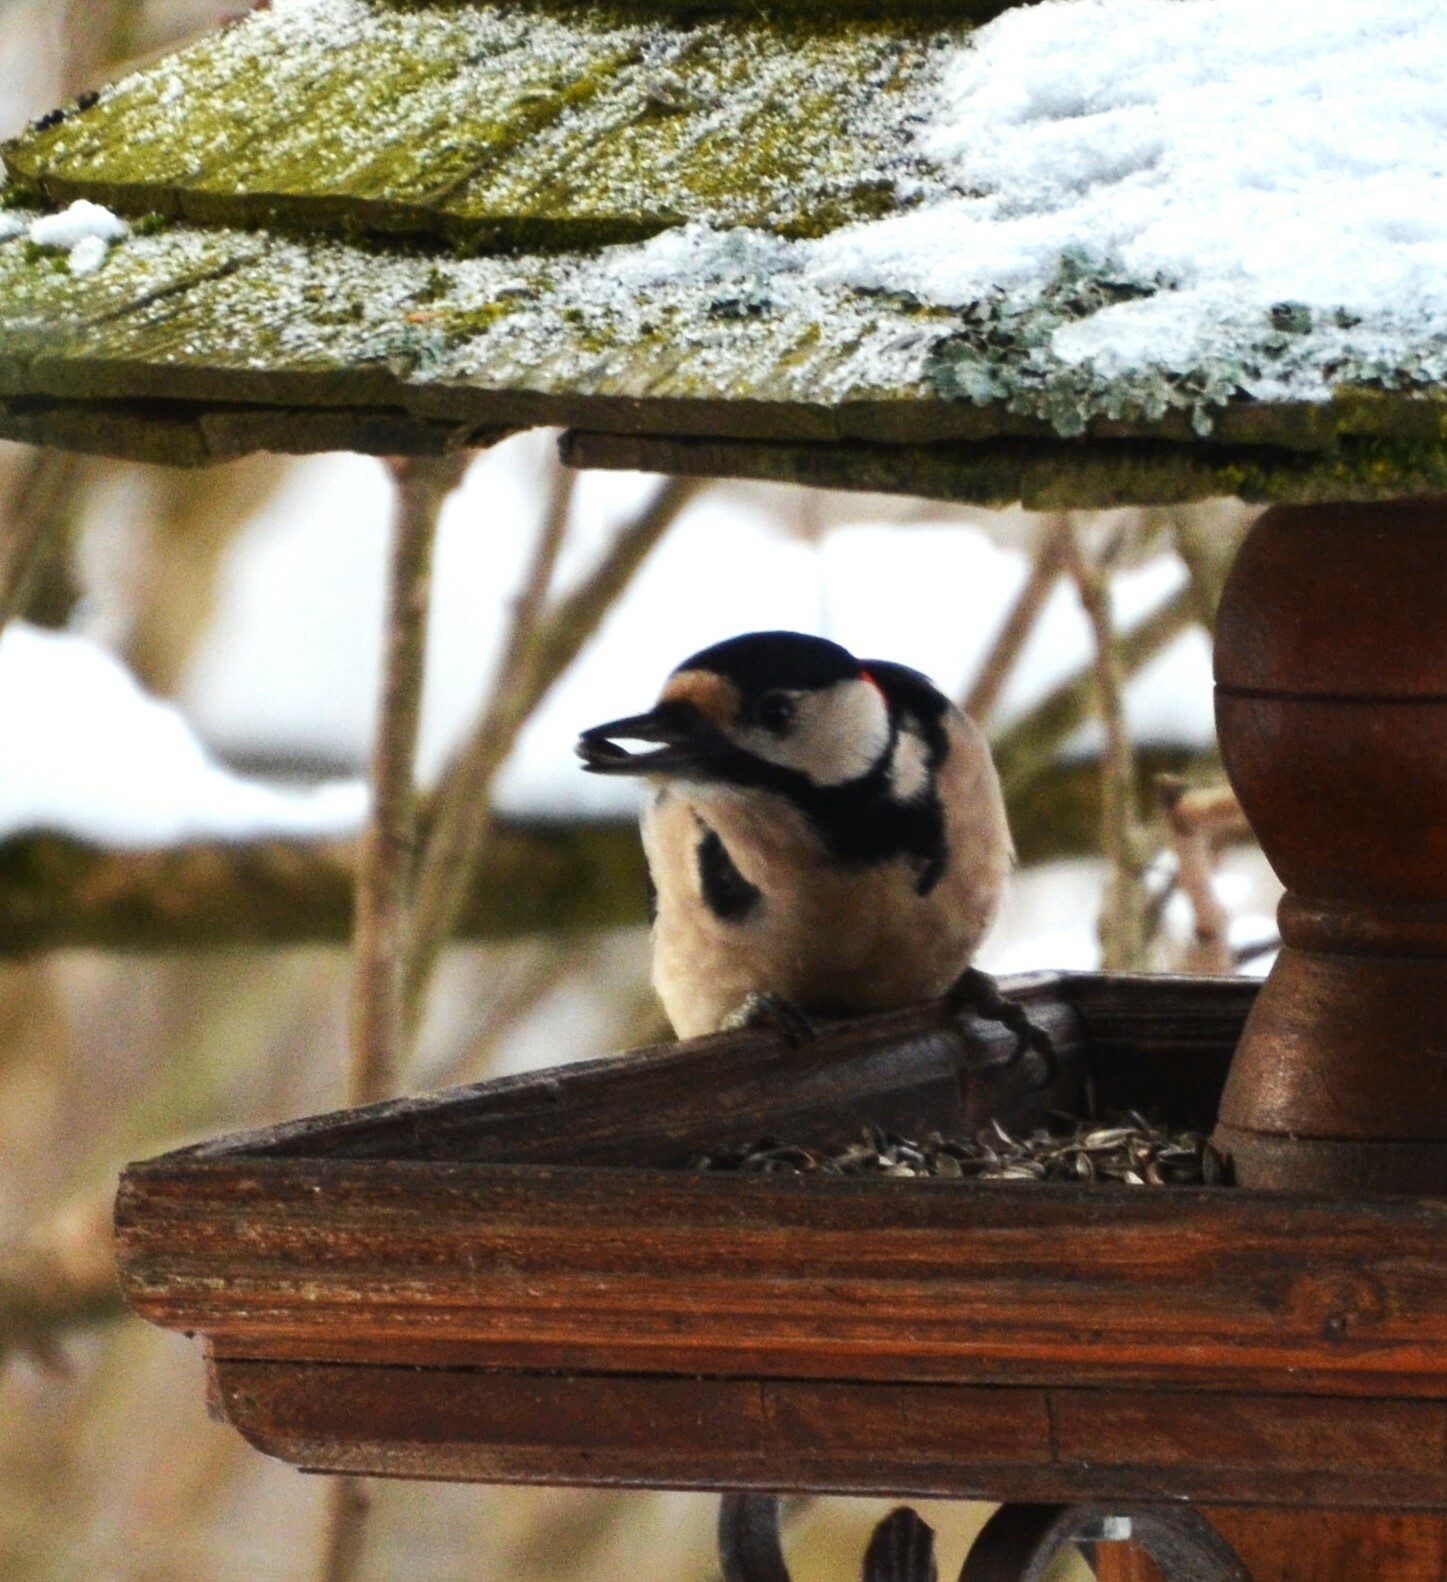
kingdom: Animalia
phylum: Chordata
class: Aves
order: Piciformes
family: Picidae
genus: Dendrocopos
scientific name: Dendrocopos major
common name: Great spotted woodpecker
